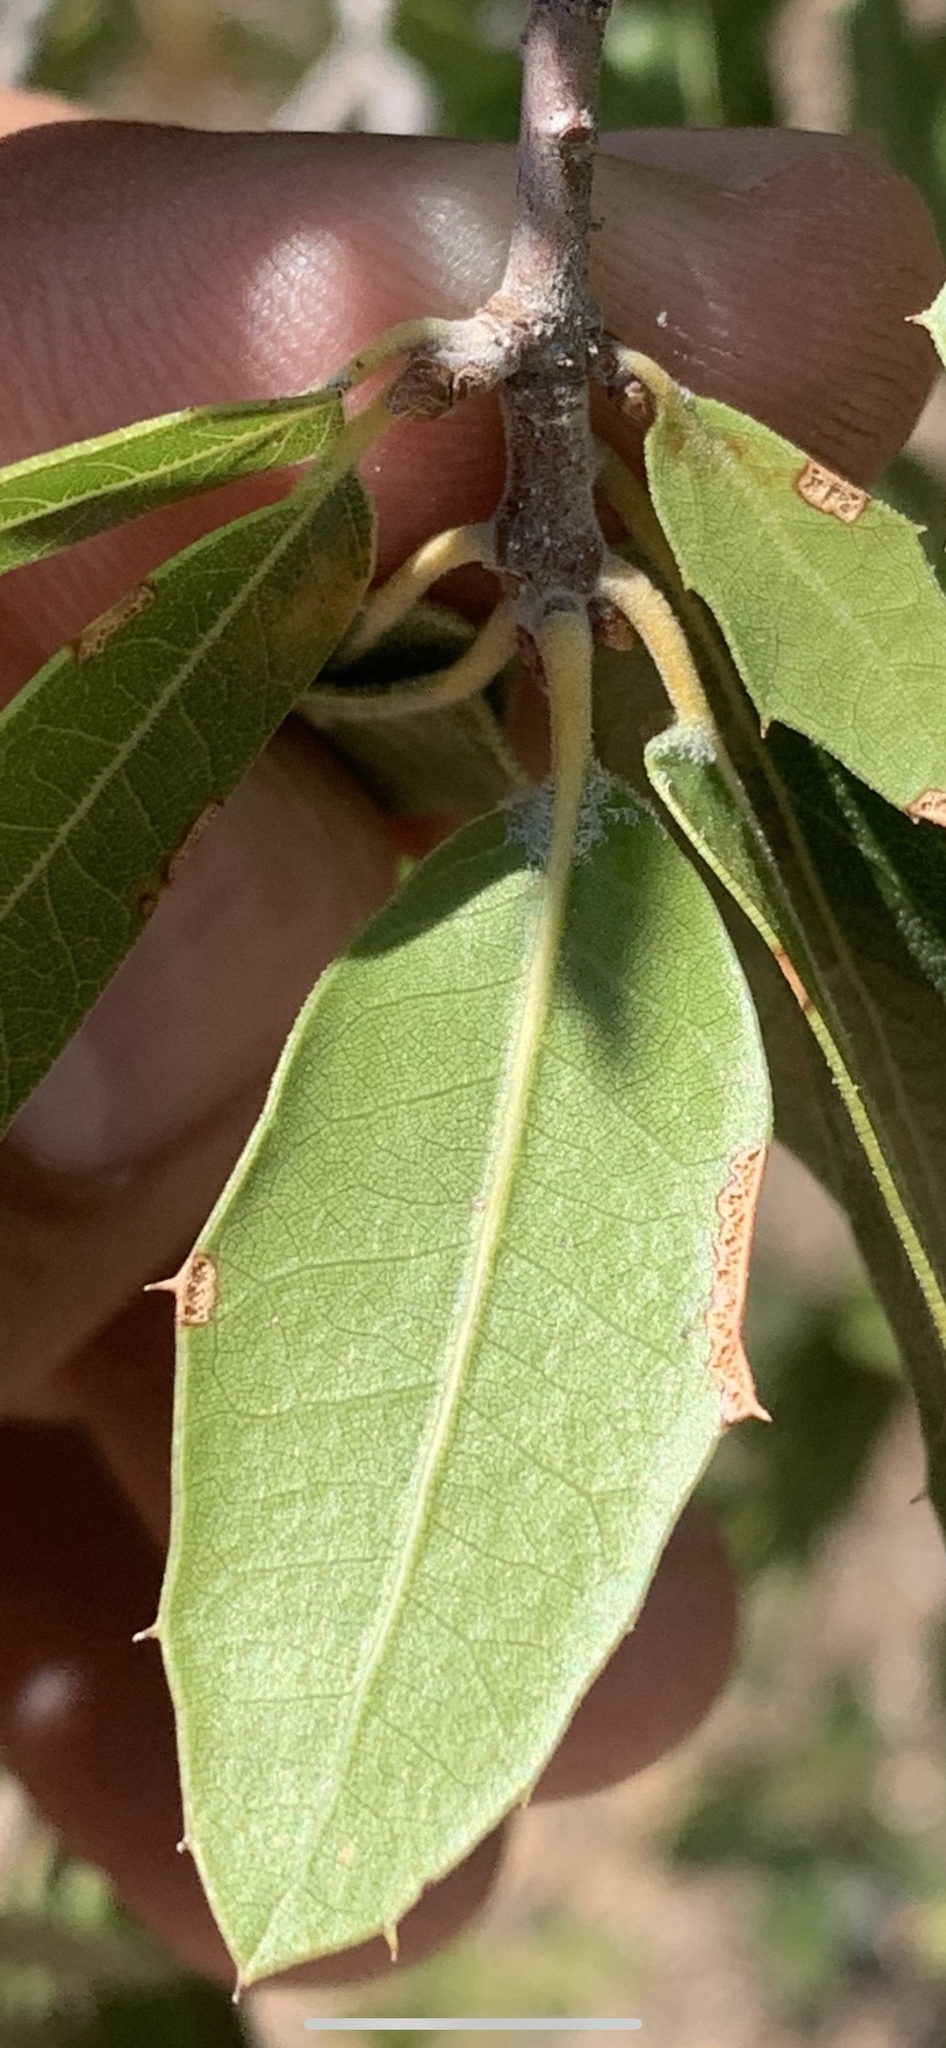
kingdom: Plantae
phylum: Tracheophyta
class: Magnoliopsida
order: Fagales
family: Fagaceae
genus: Quercus
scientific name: Quercus emoryi
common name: Emory oak
